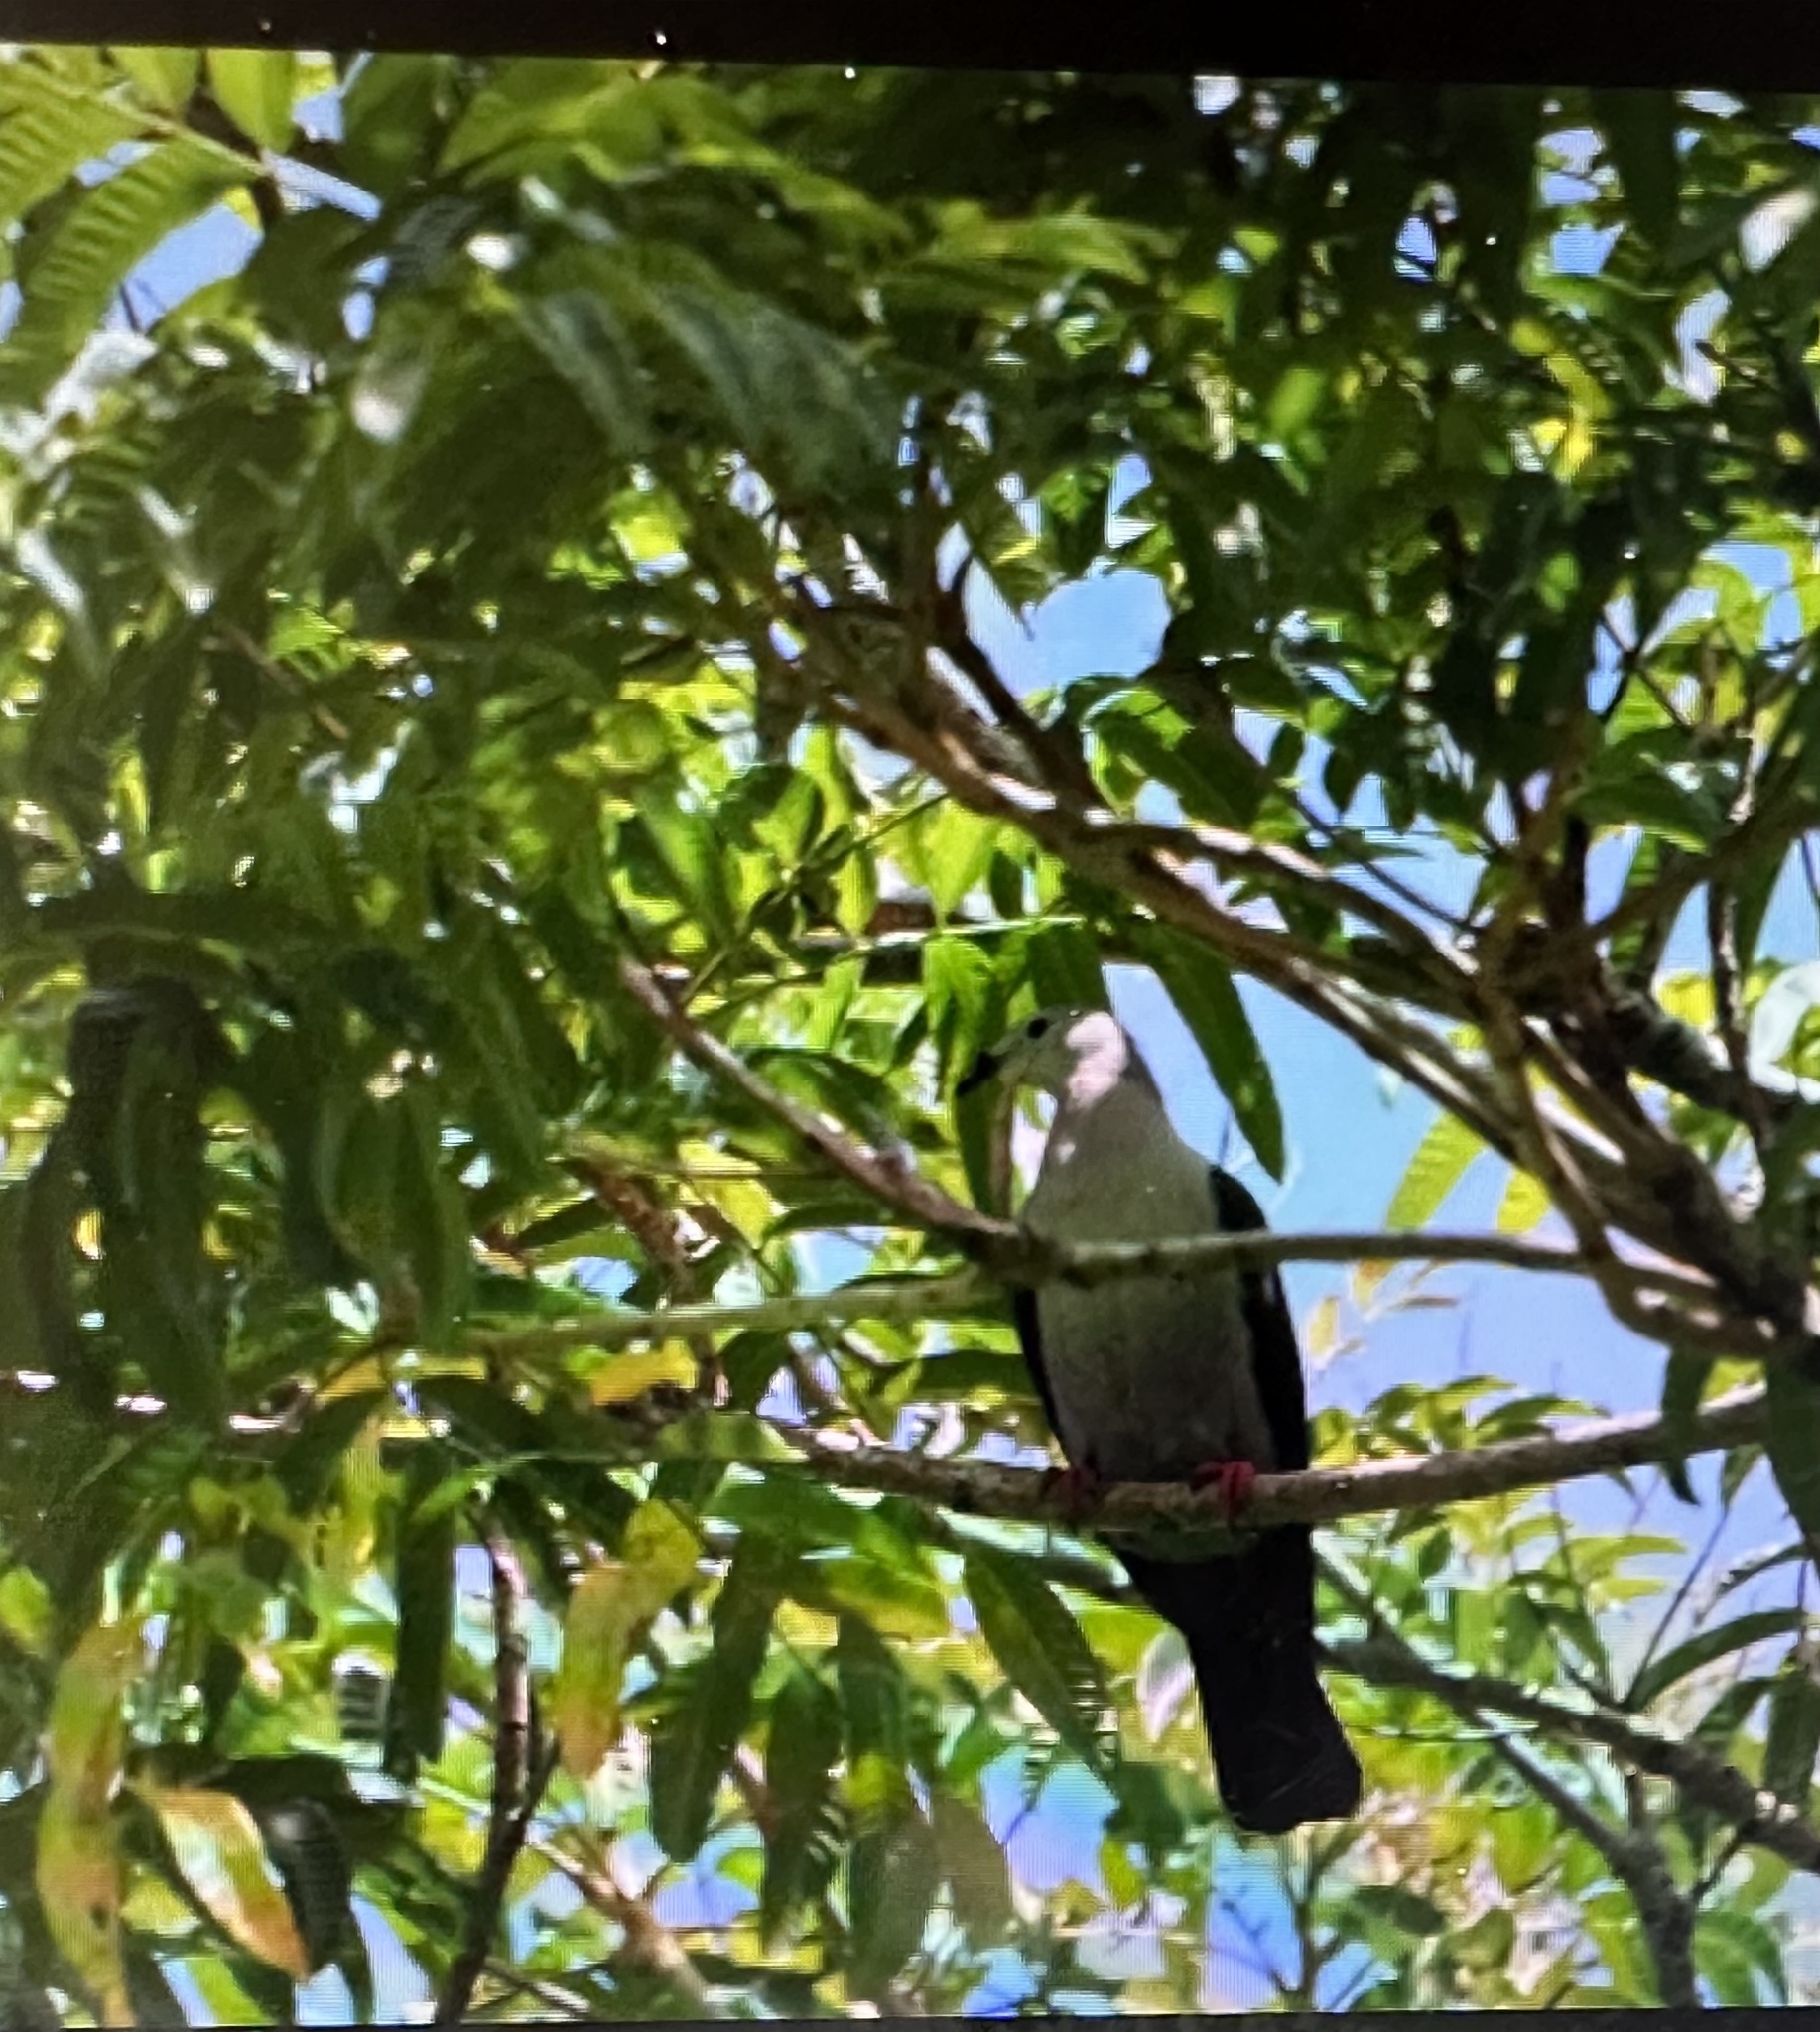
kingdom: Animalia
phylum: Chordata
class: Aves
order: Columbiformes
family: Columbidae
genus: Ducula
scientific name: Ducula pacifica
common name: Pacific imperial-pigeon
